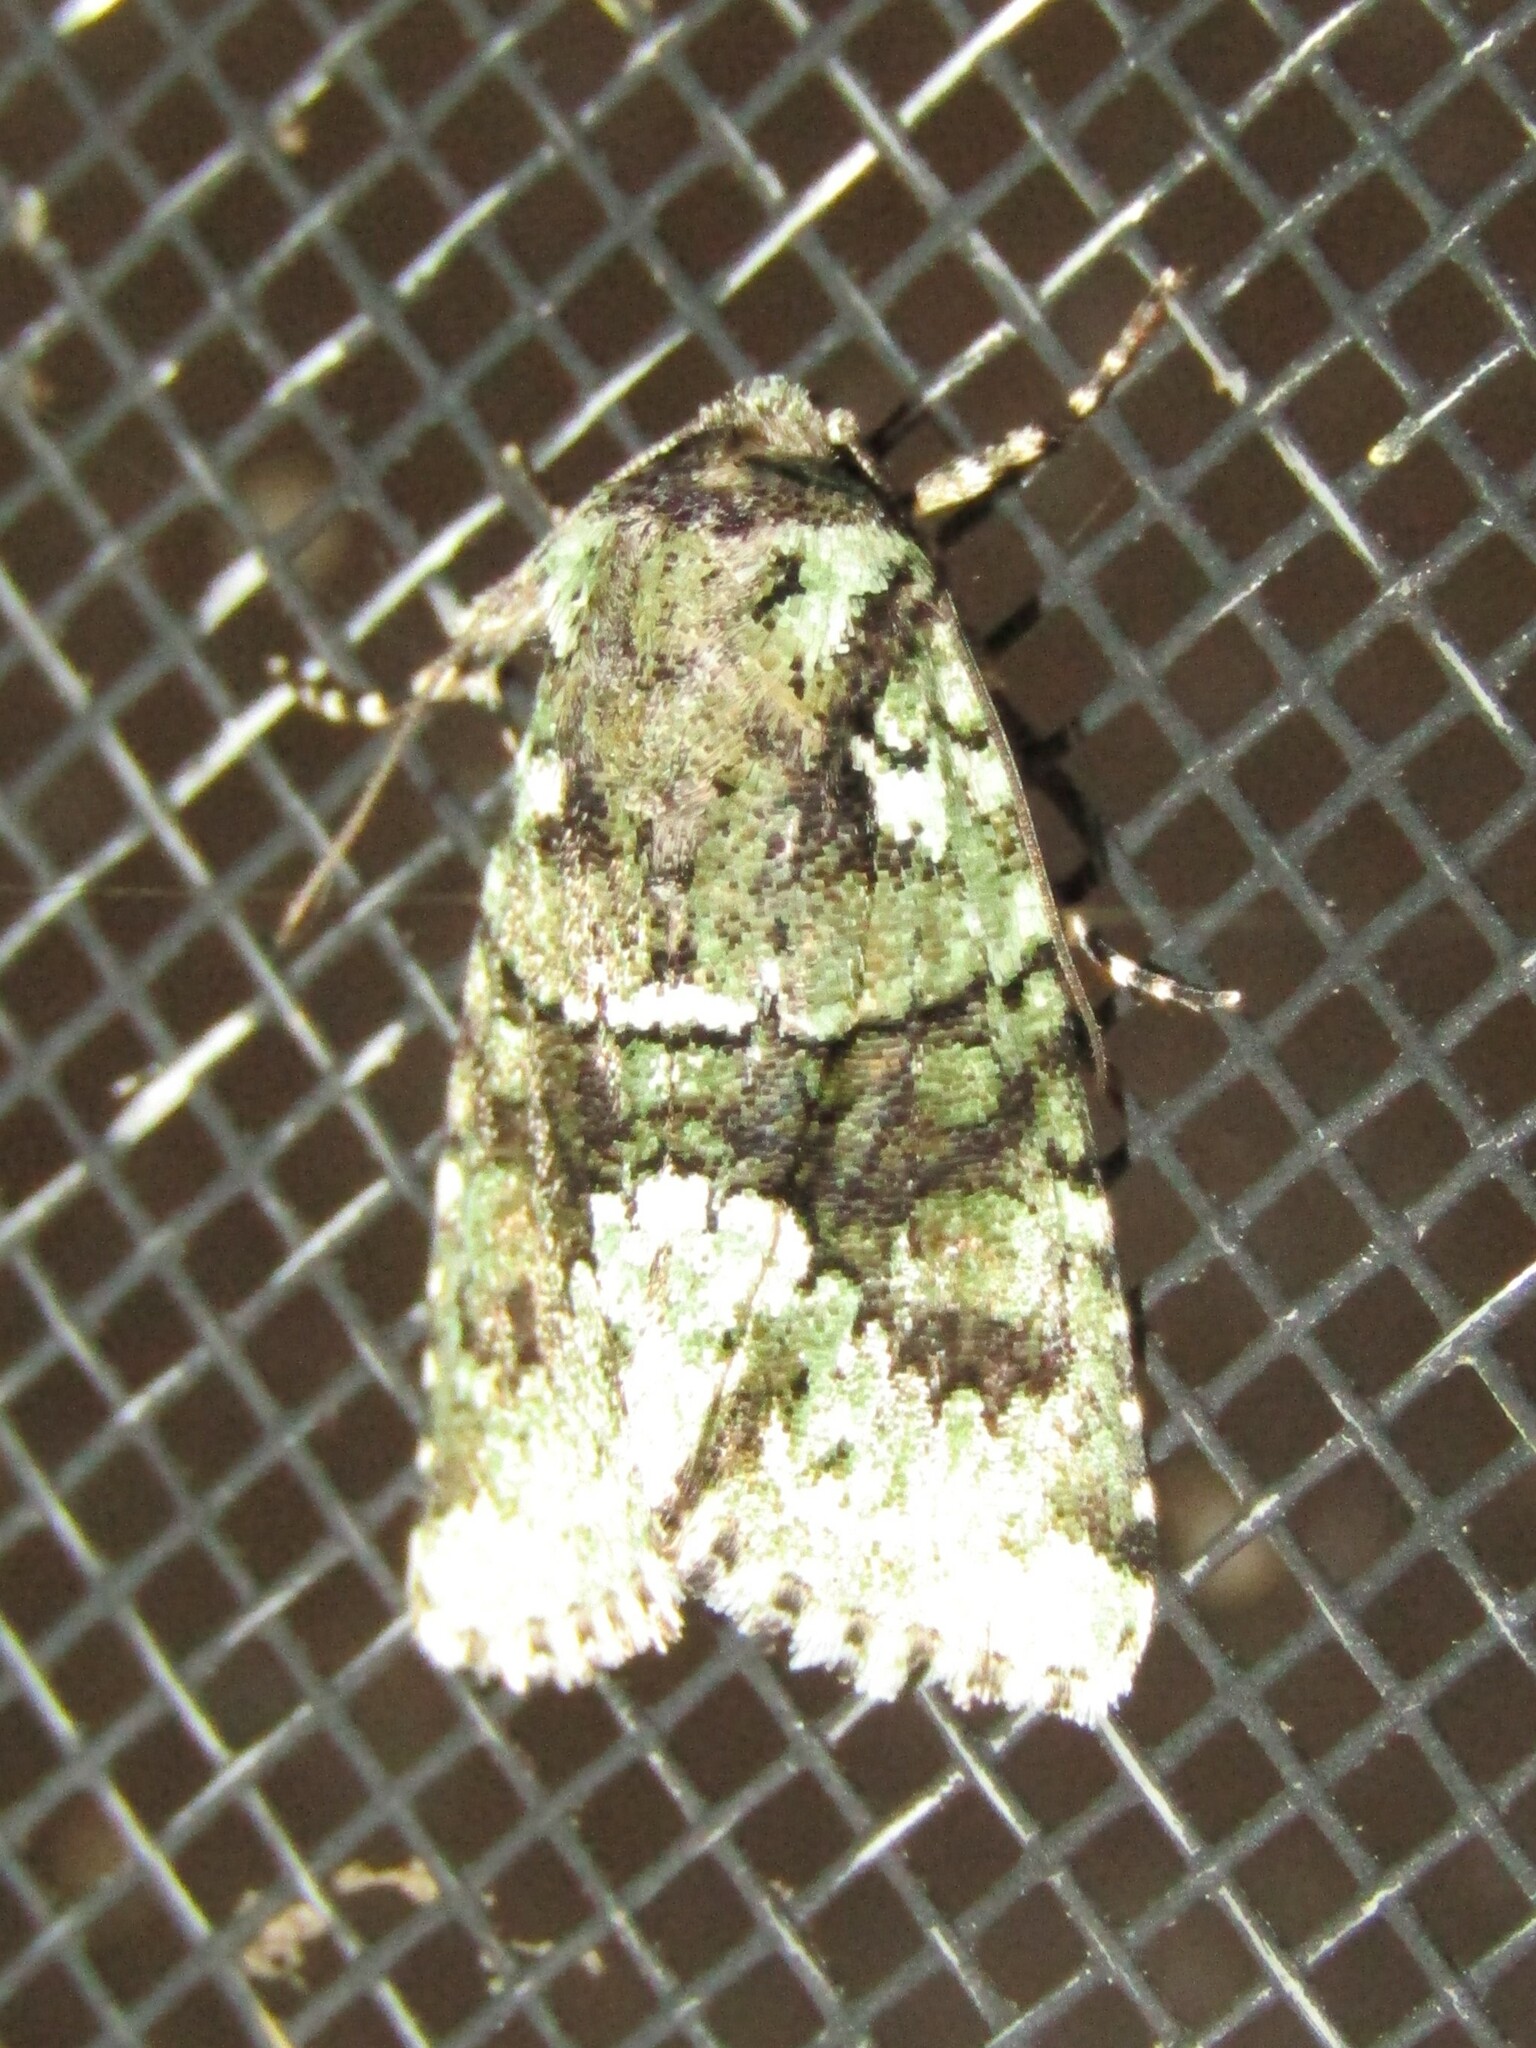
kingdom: Animalia
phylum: Arthropoda
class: Insecta
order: Lepidoptera
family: Noctuidae
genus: Lacinipolia
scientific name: Lacinipolia explicata
